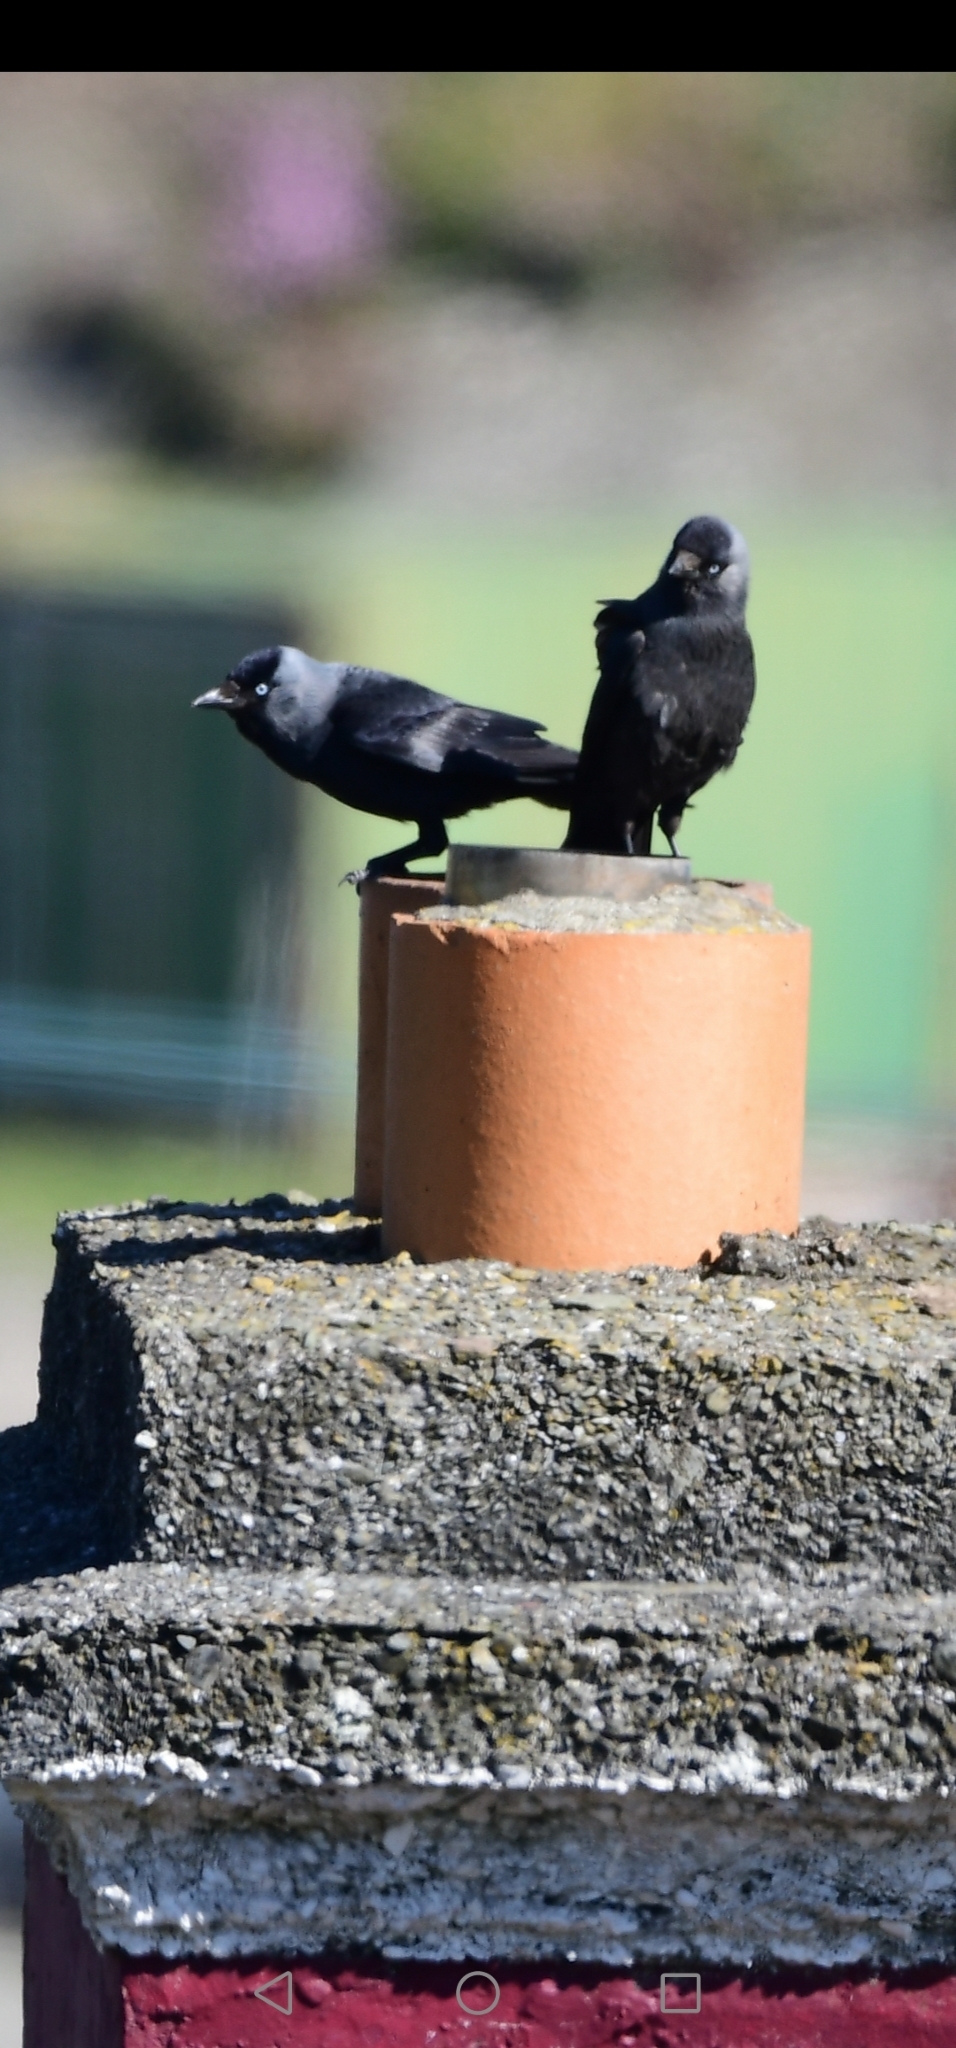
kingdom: Animalia
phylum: Chordata
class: Aves
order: Passeriformes
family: Corvidae
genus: Coloeus
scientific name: Coloeus monedula
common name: Western jackdaw
